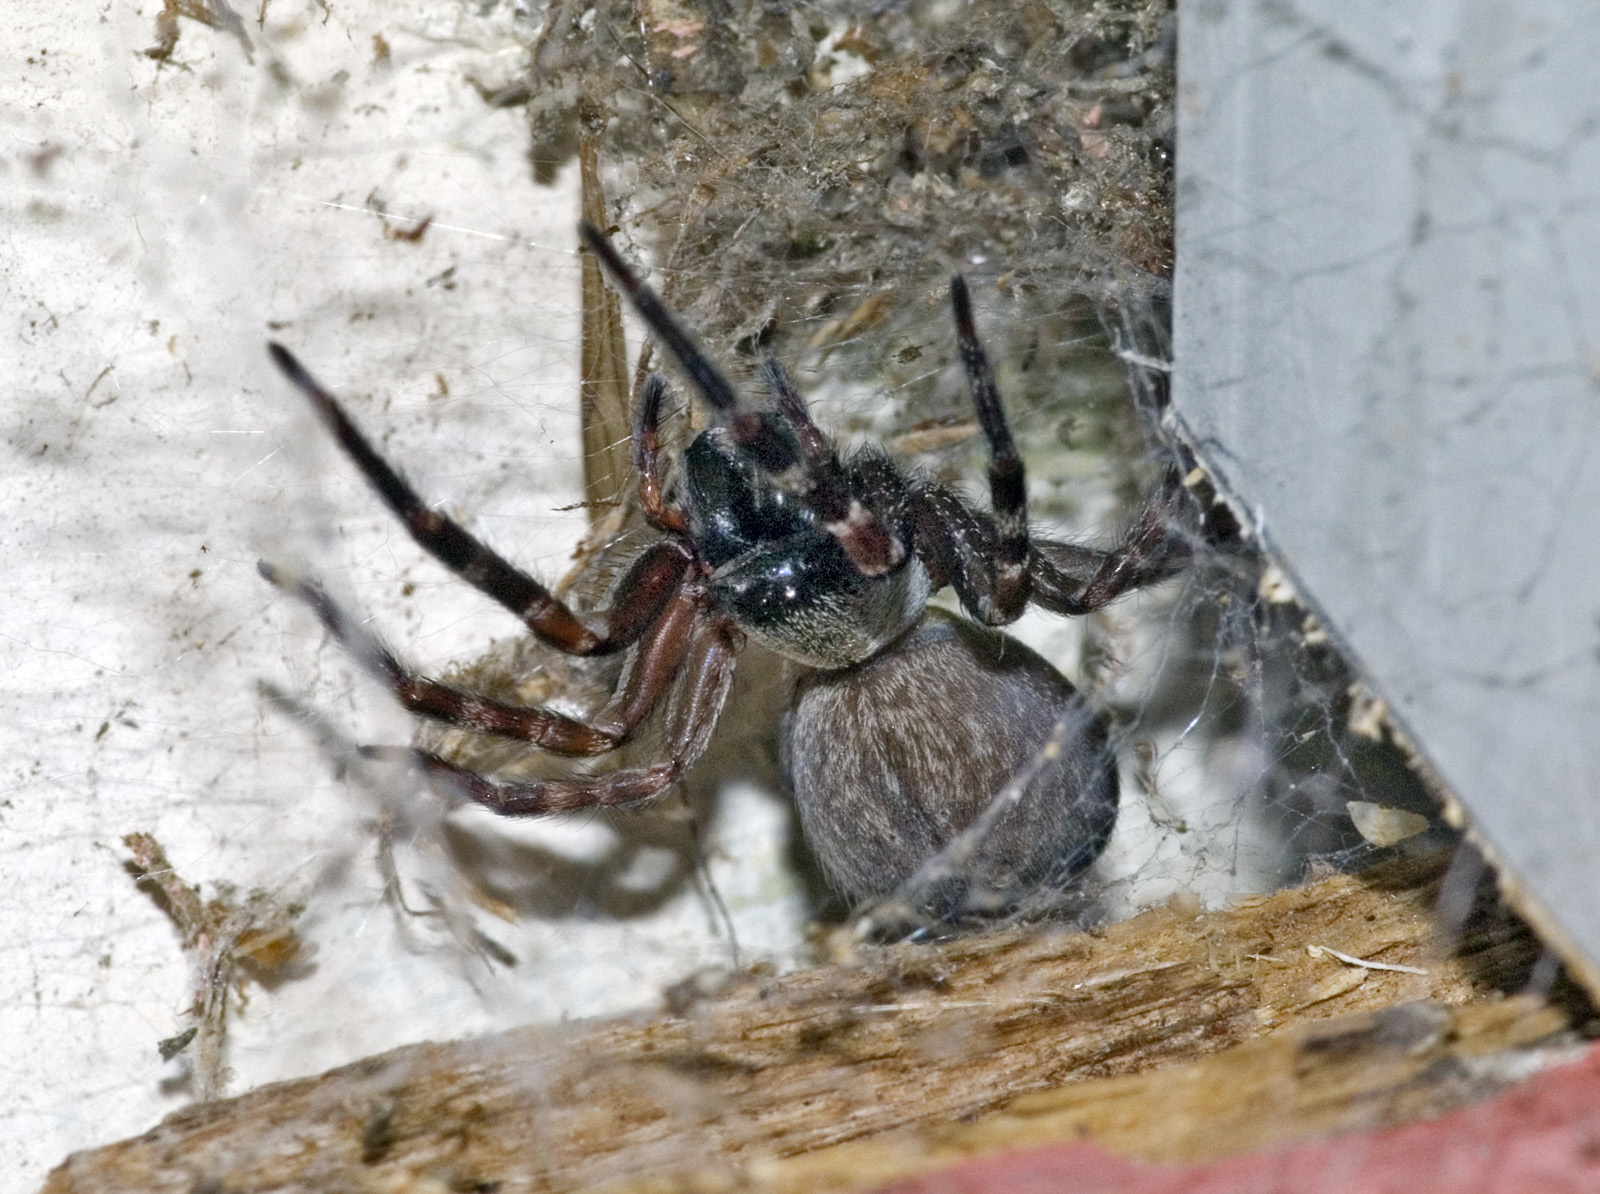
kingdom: Animalia
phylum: Arthropoda
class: Arachnida
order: Araneae
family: Desidae
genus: Badumna
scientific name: Badumna longinqua
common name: Gray house spider
